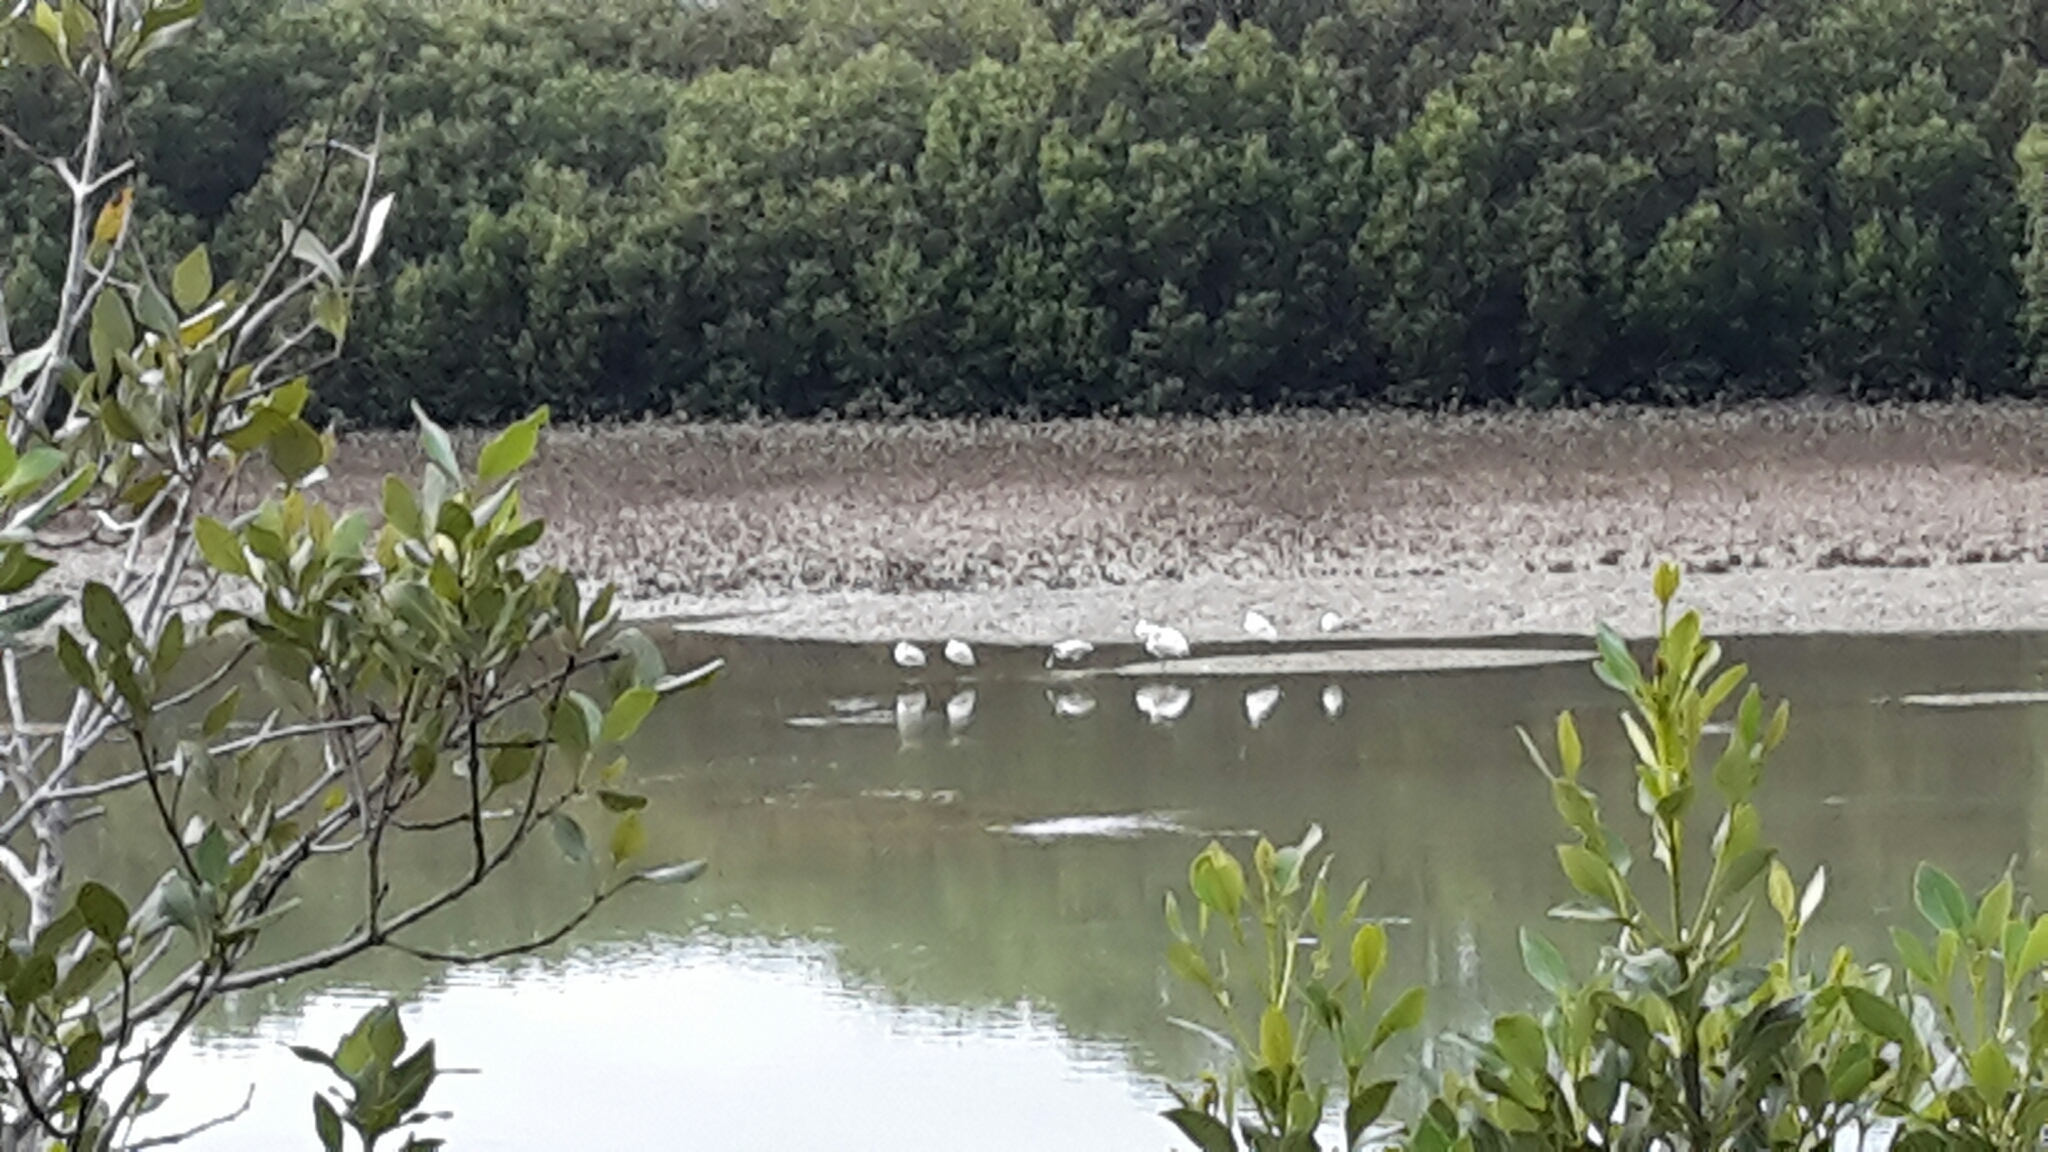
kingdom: Animalia
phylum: Chordata
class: Aves
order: Pelecaniformes
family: Threskiornithidae
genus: Platalea
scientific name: Platalea regia
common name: Royal spoonbill
